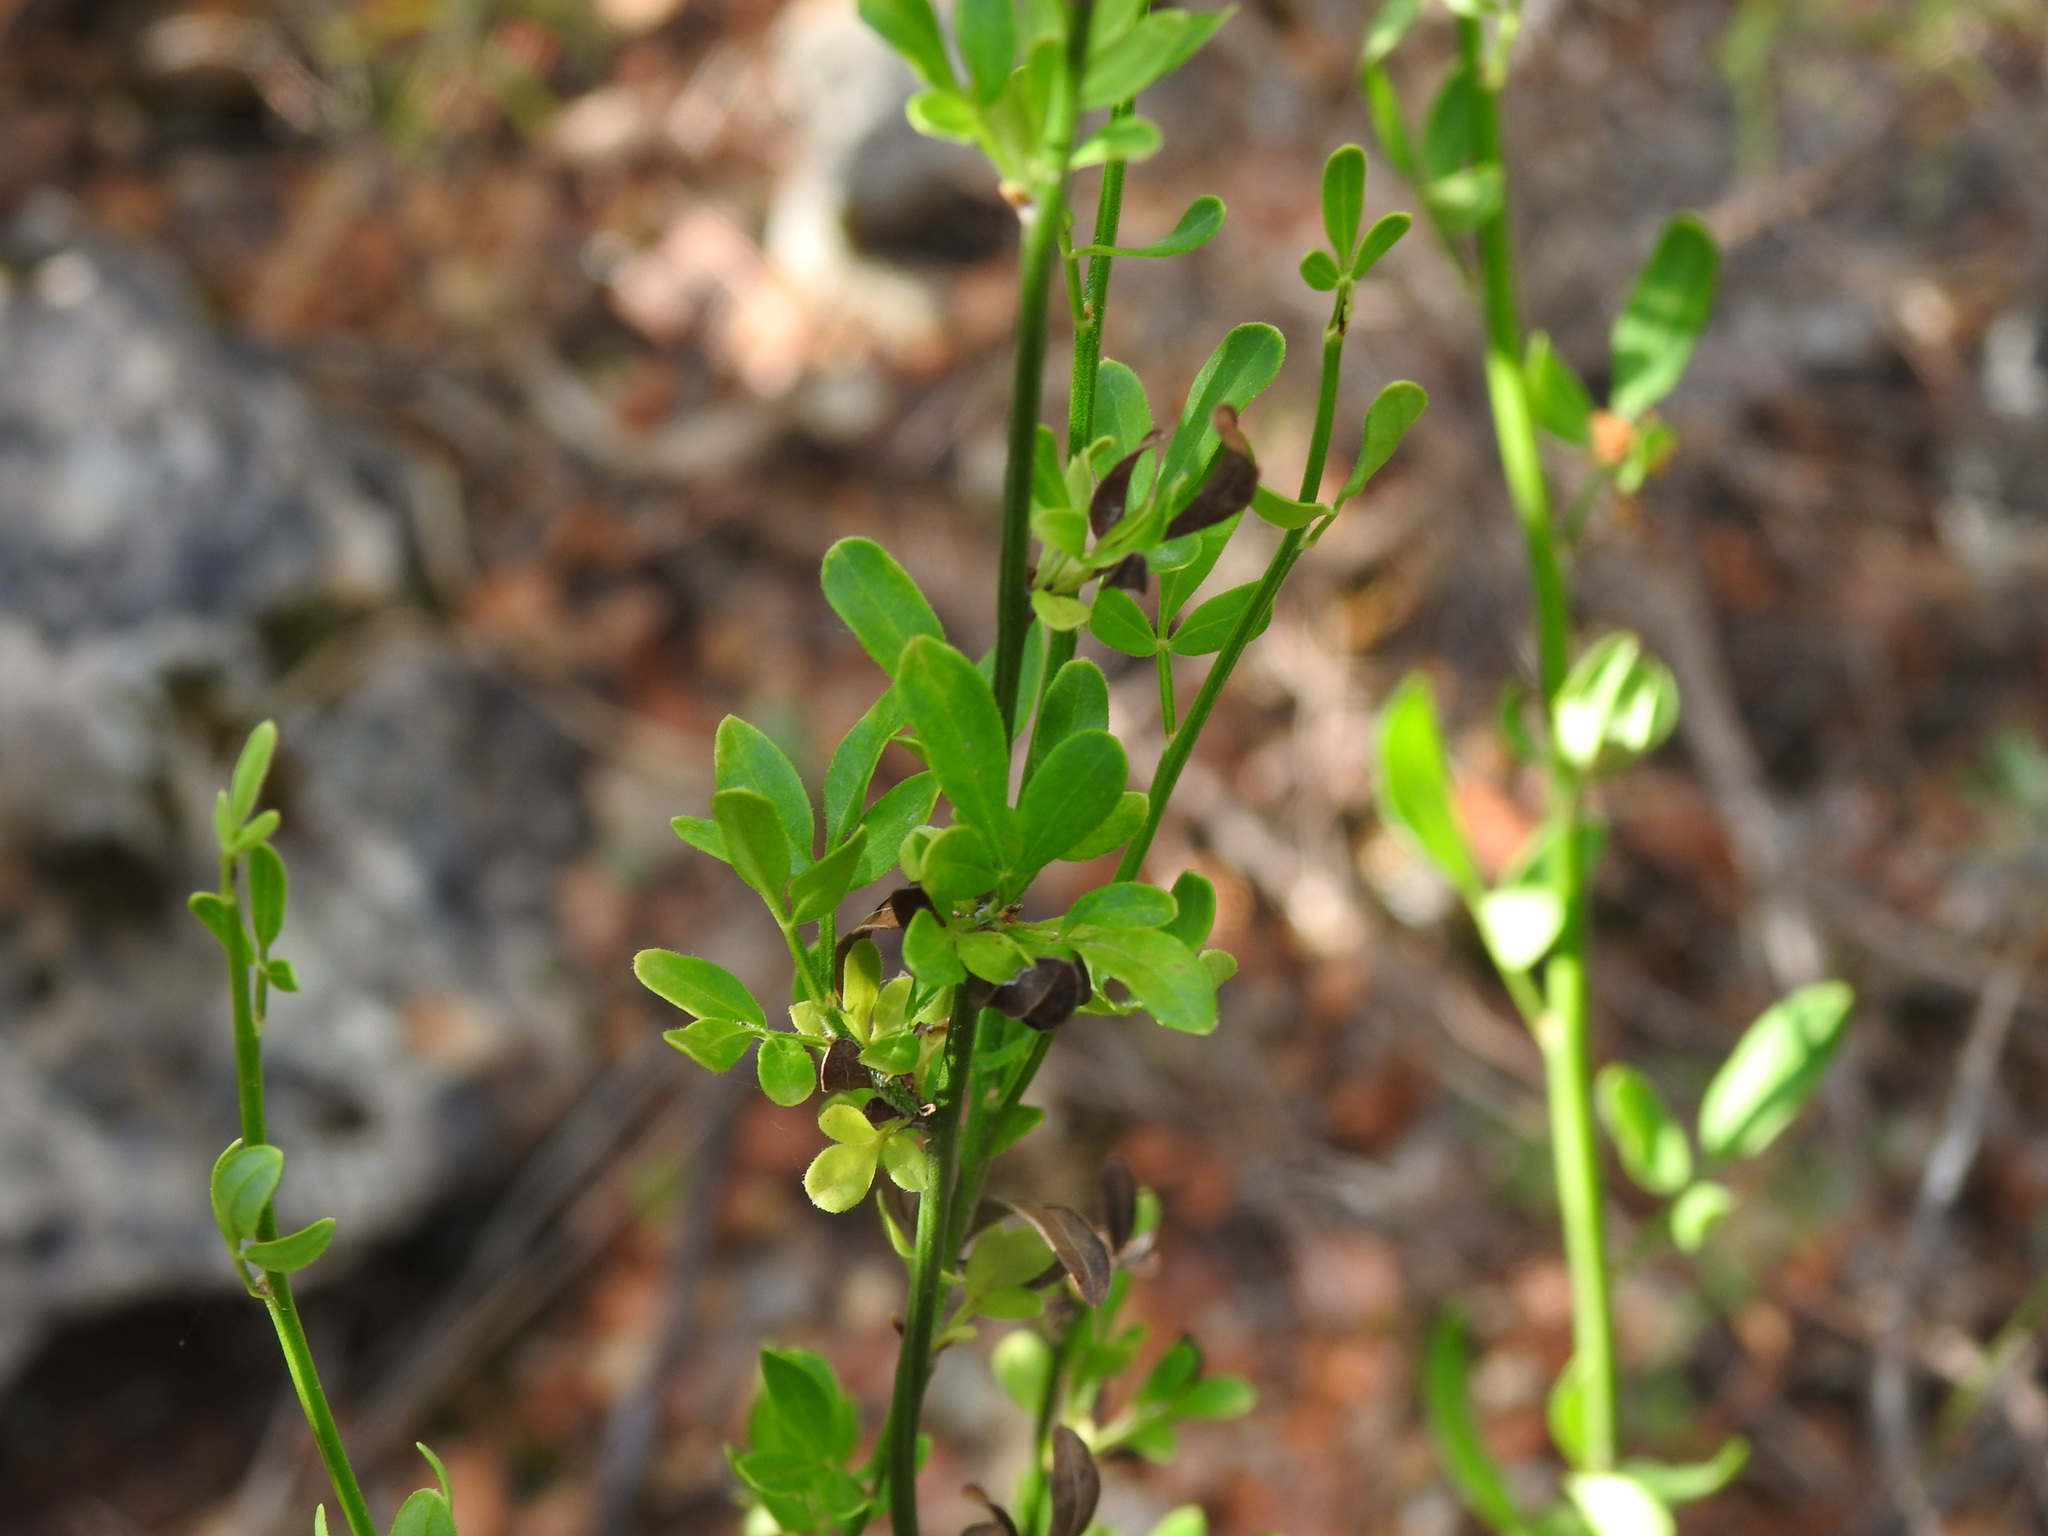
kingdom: Plantae
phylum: Tracheophyta
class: Magnoliopsida
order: Lamiales
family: Oleaceae
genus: Chrysojasminum
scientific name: Chrysojasminum fruticans
